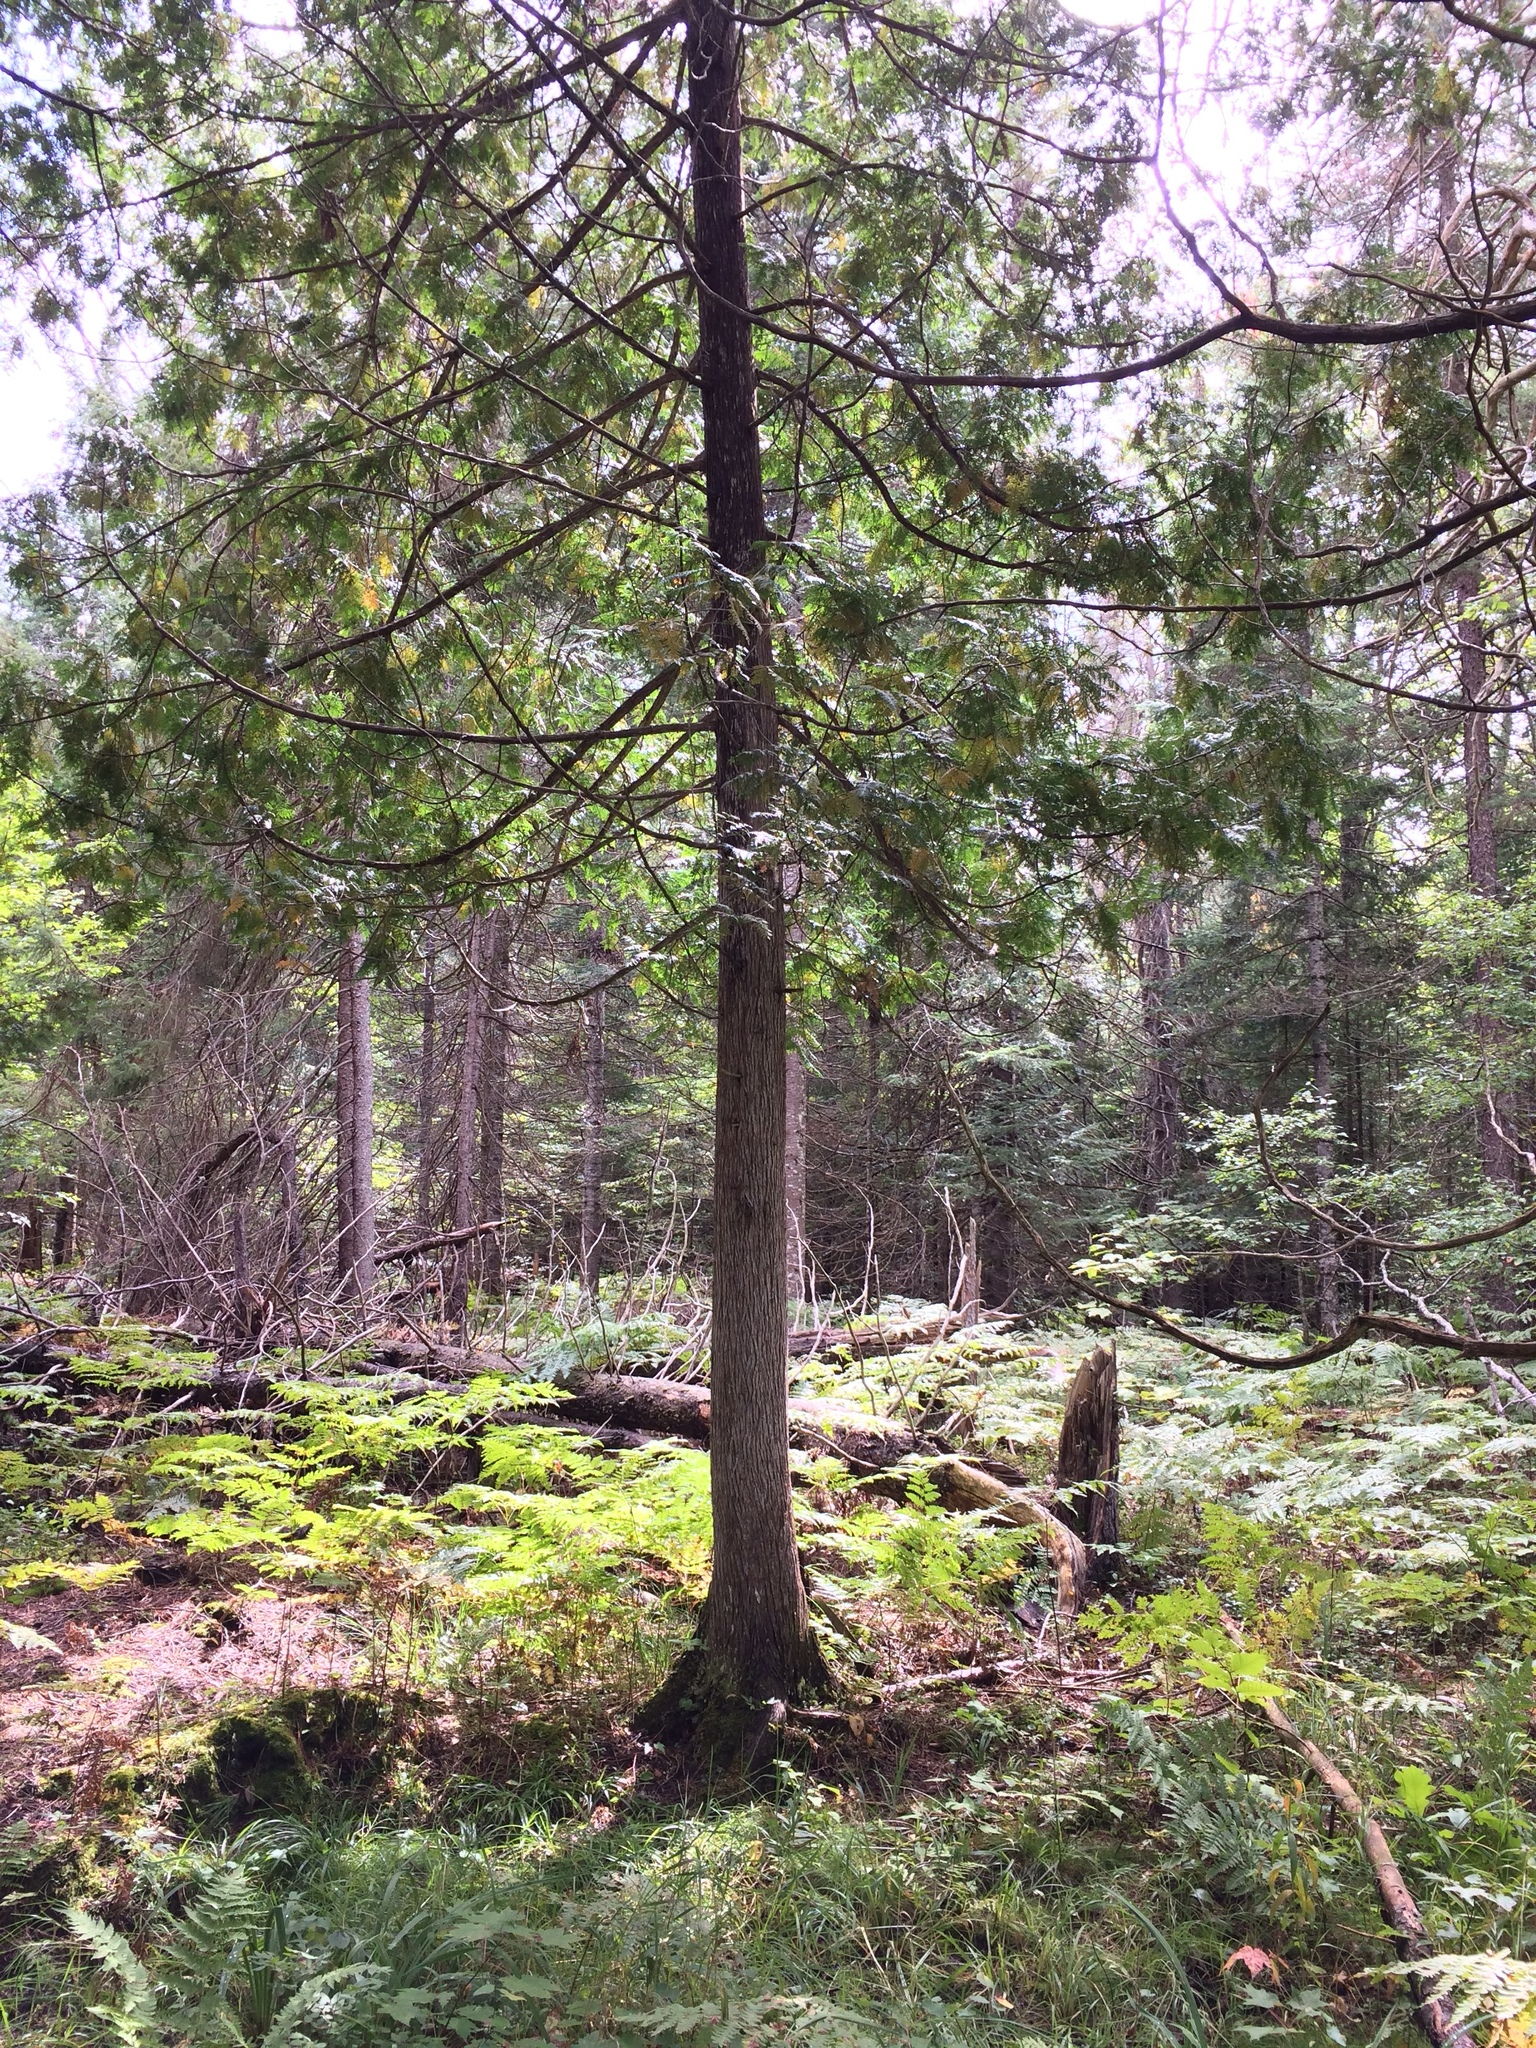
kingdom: Plantae
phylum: Tracheophyta
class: Pinopsida
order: Pinales
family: Cupressaceae
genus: Thuja
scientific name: Thuja occidentalis
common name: Northern white-cedar
